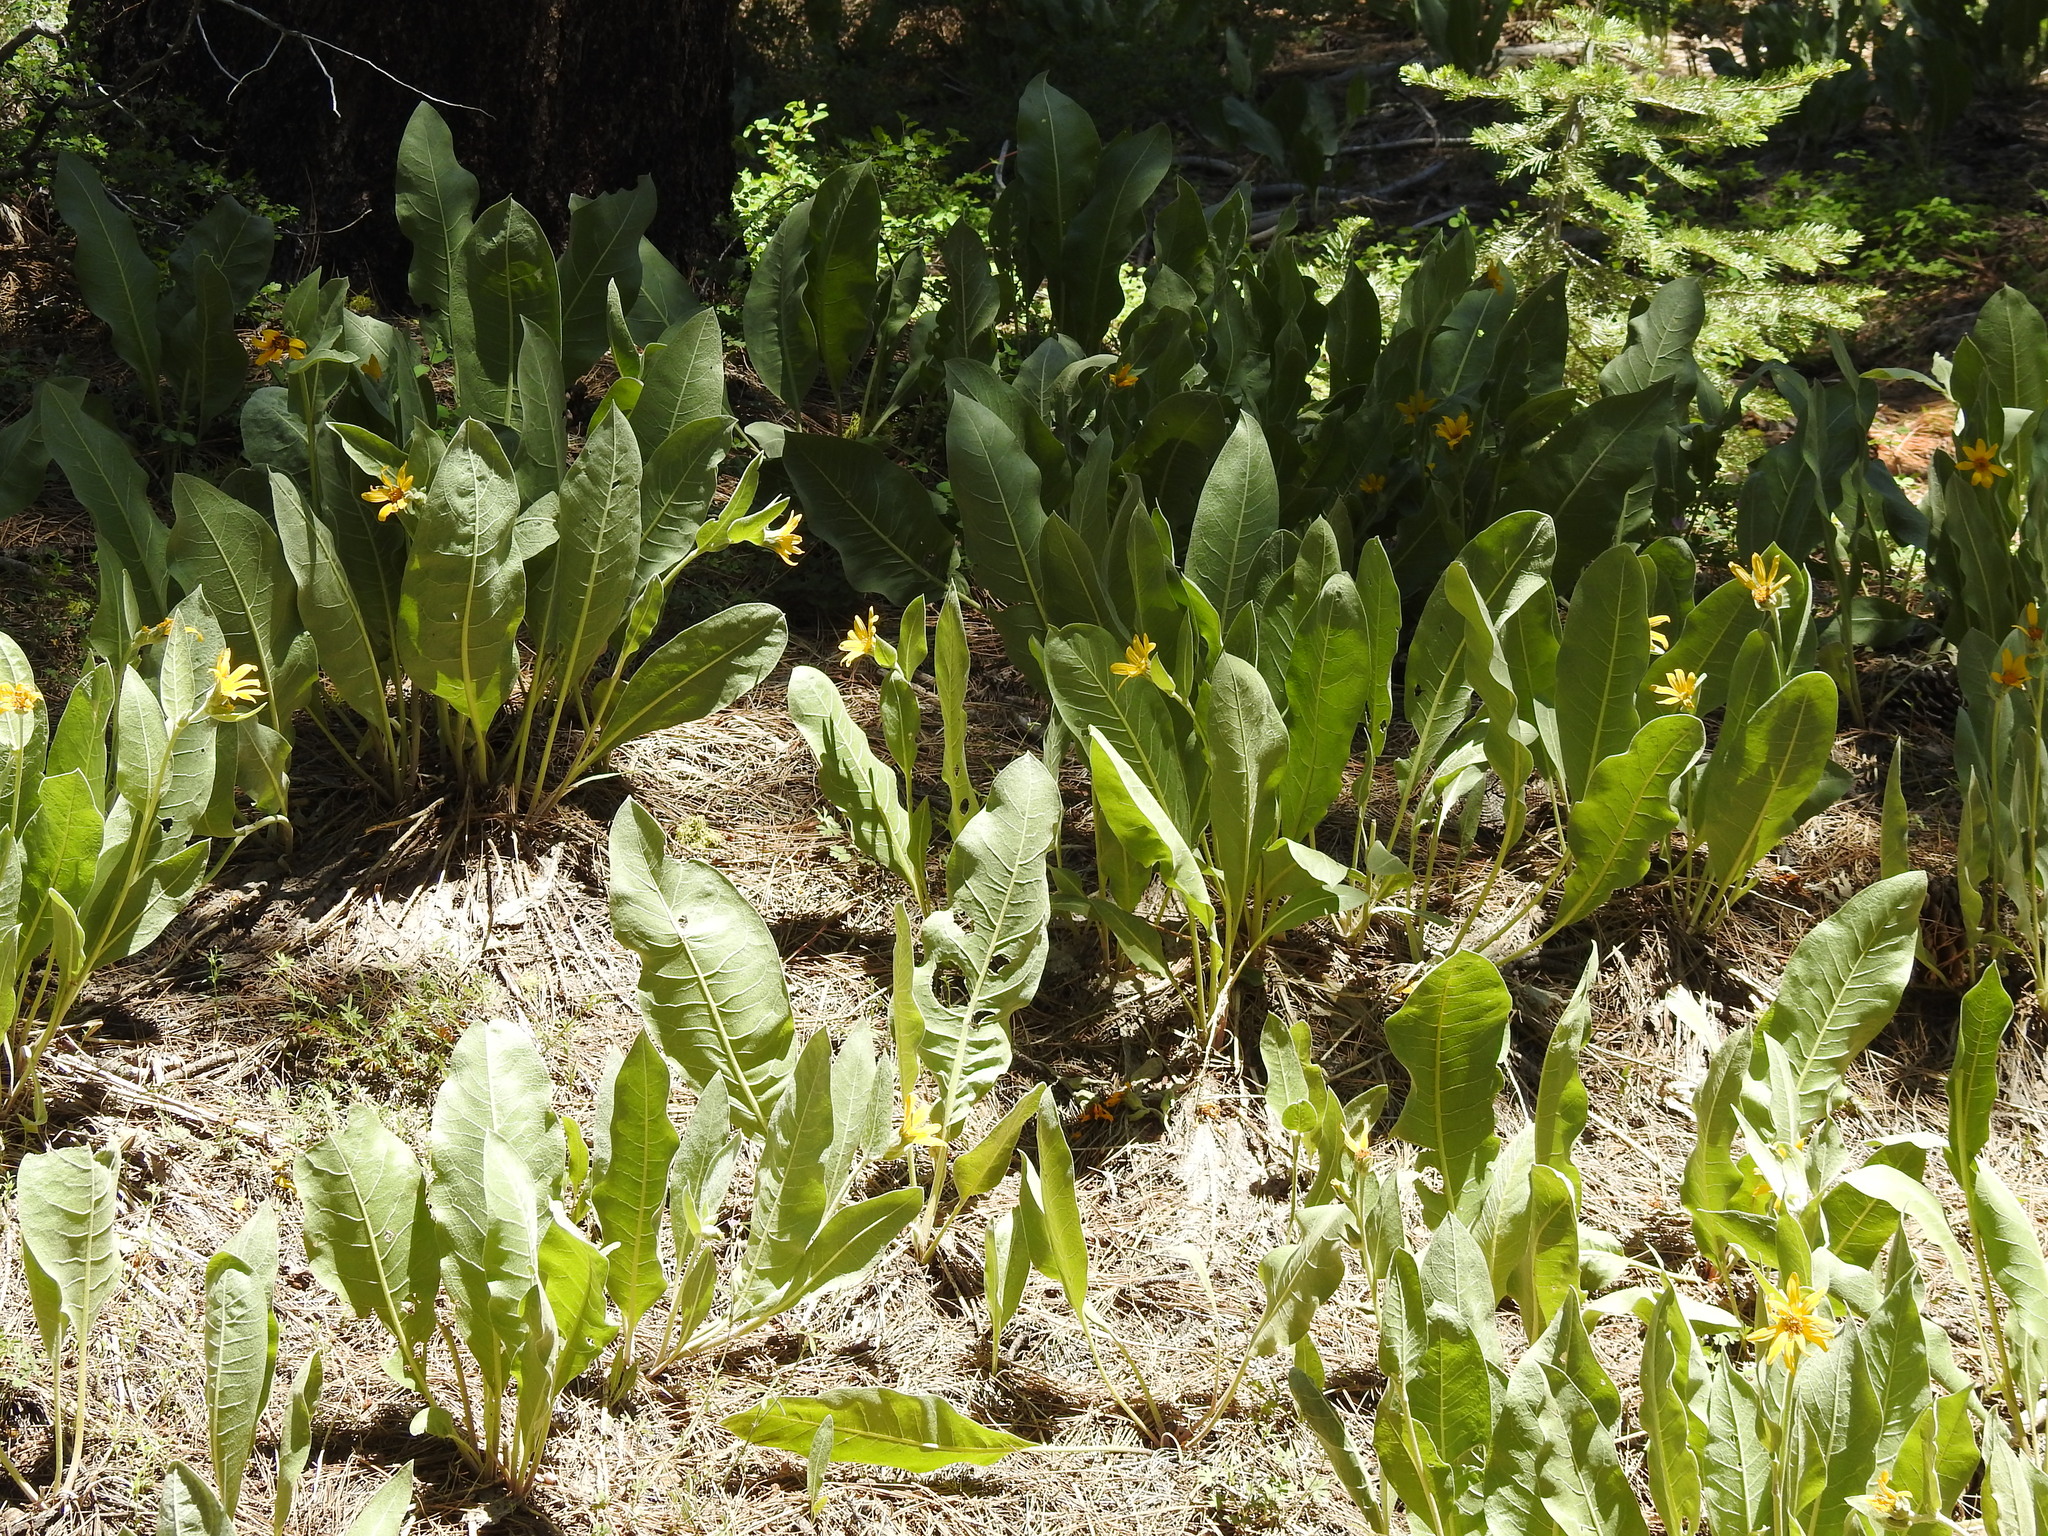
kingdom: Plantae
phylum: Tracheophyta
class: Magnoliopsida
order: Asterales
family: Asteraceae
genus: Wyethia
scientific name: Wyethia mollis
